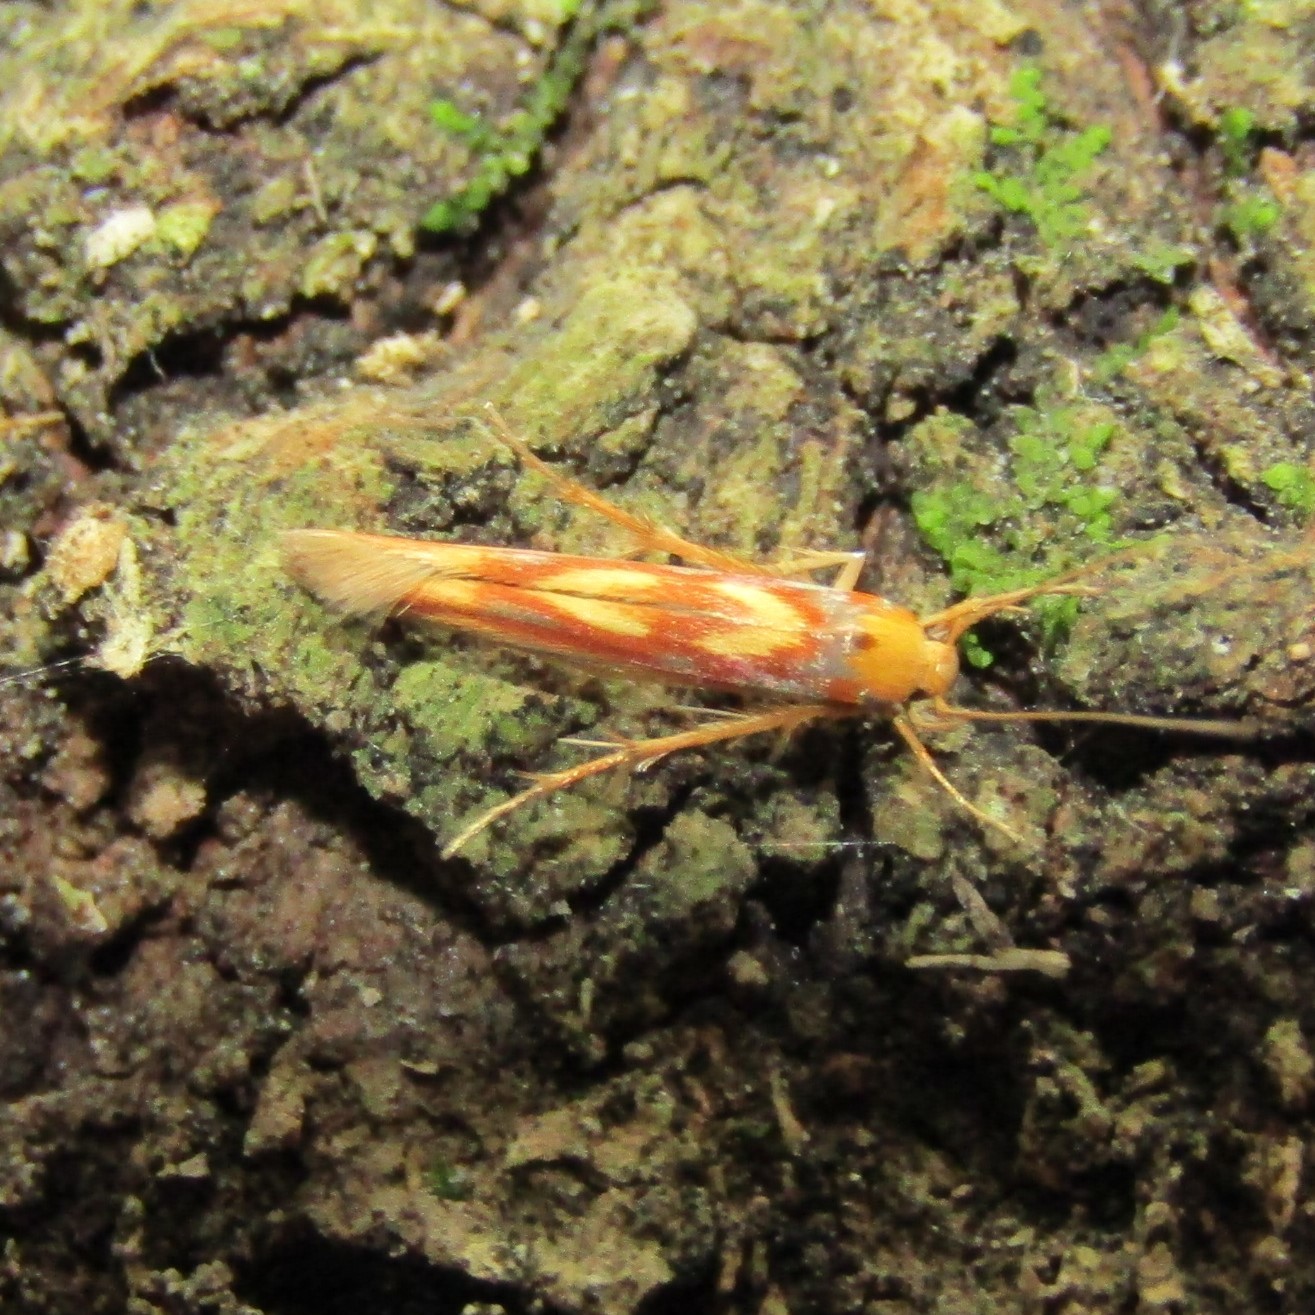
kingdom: Animalia
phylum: Arthropoda
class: Insecta
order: Lepidoptera
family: Stathmopodidae
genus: Stathmopoda
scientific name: Stathmopoda caminora
